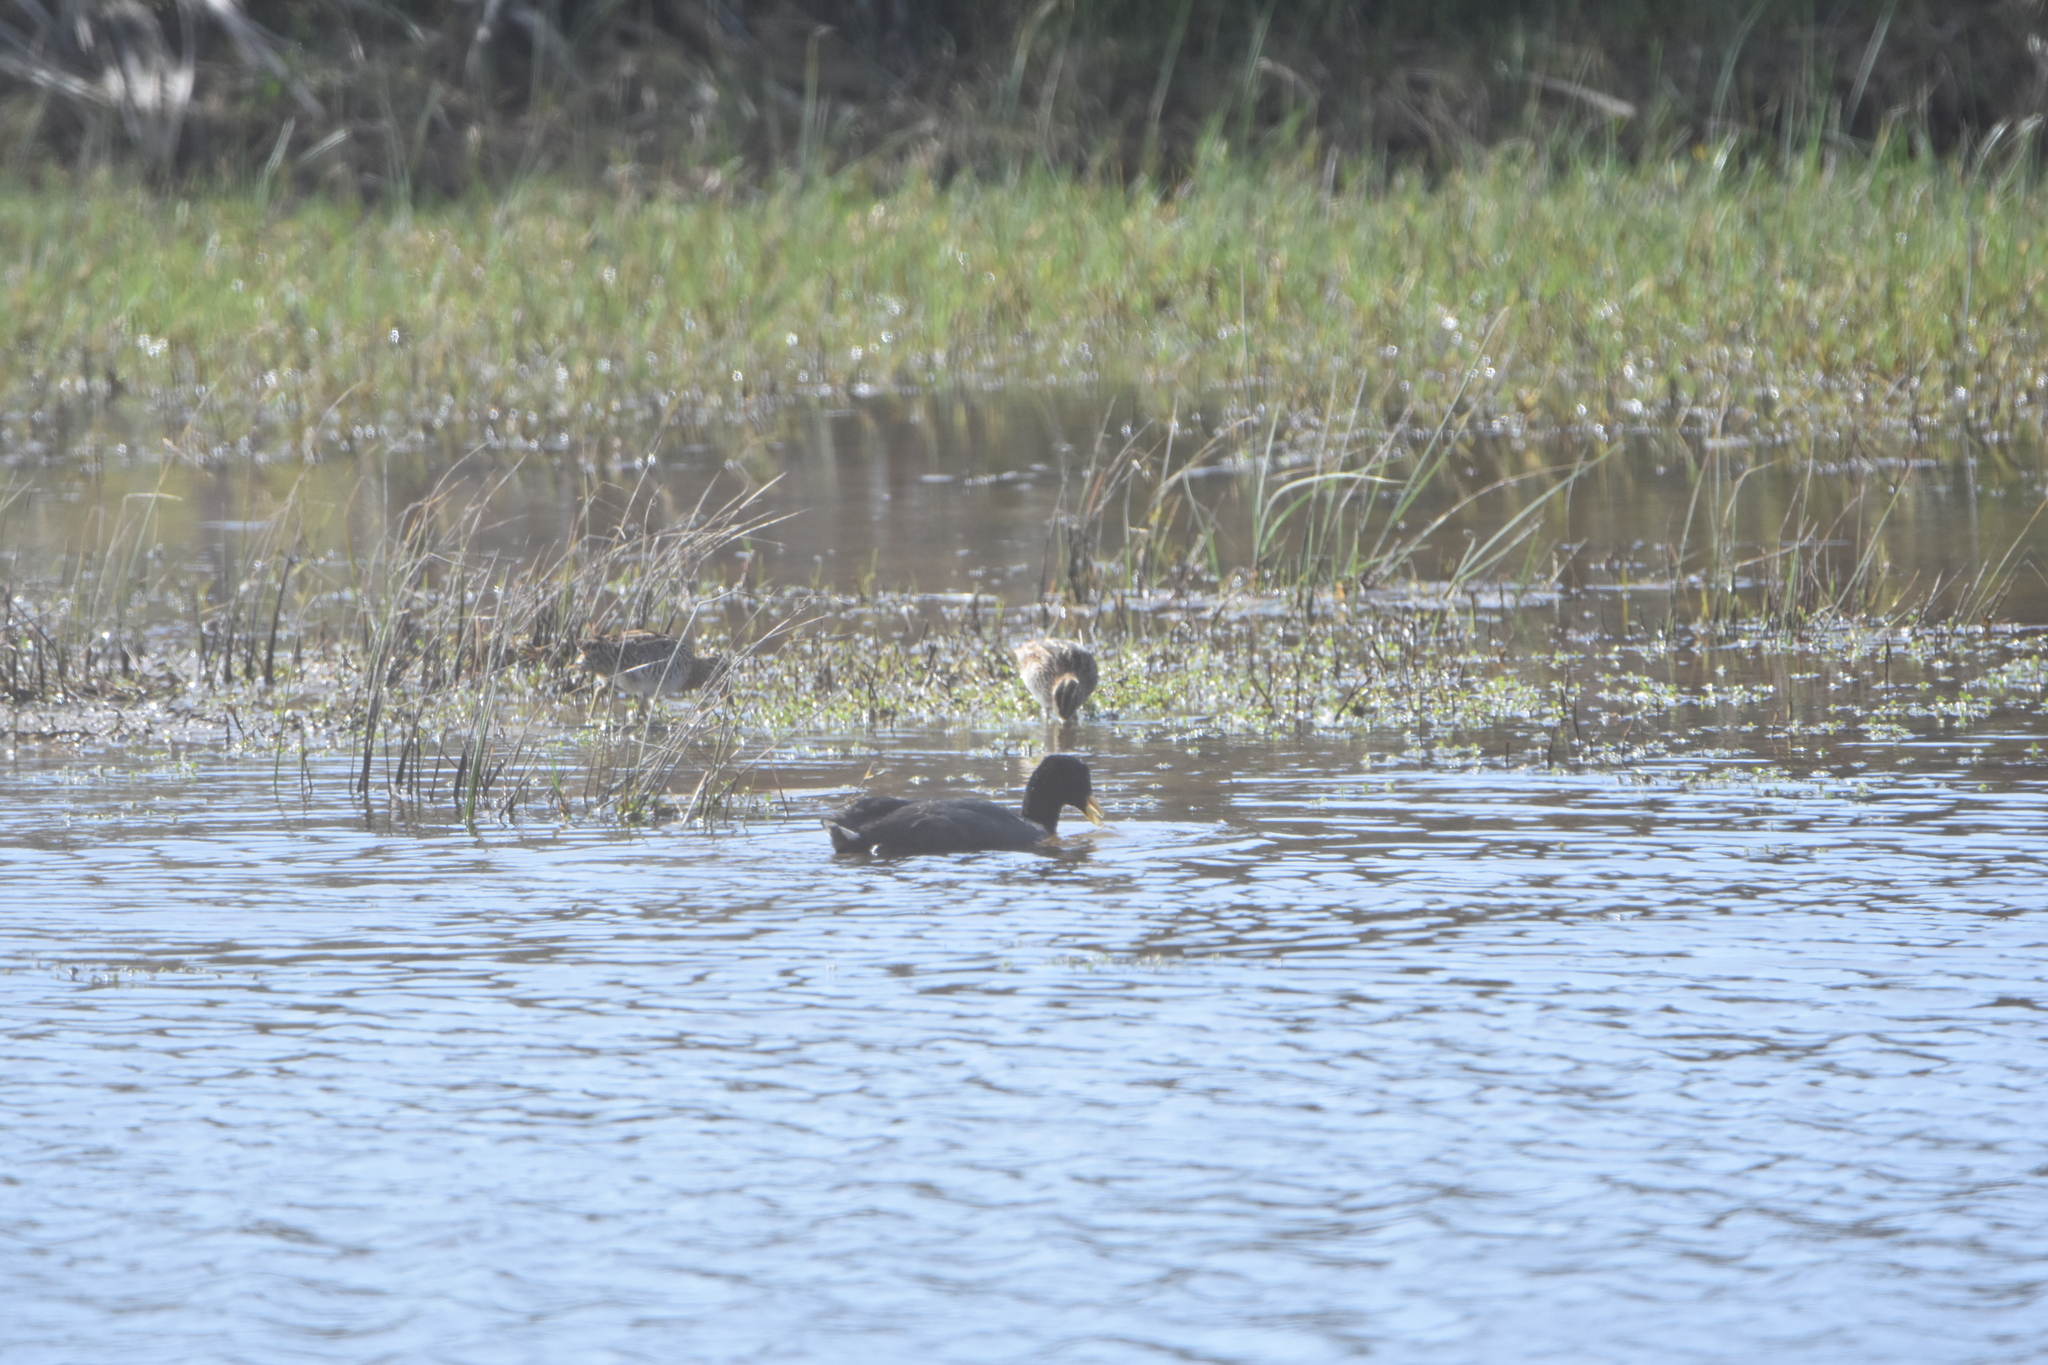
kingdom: Animalia
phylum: Chordata
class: Aves
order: Charadriiformes
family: Scolopacidae
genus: Gallinago
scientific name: Gallinago magellanica
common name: Magellanic snipe
